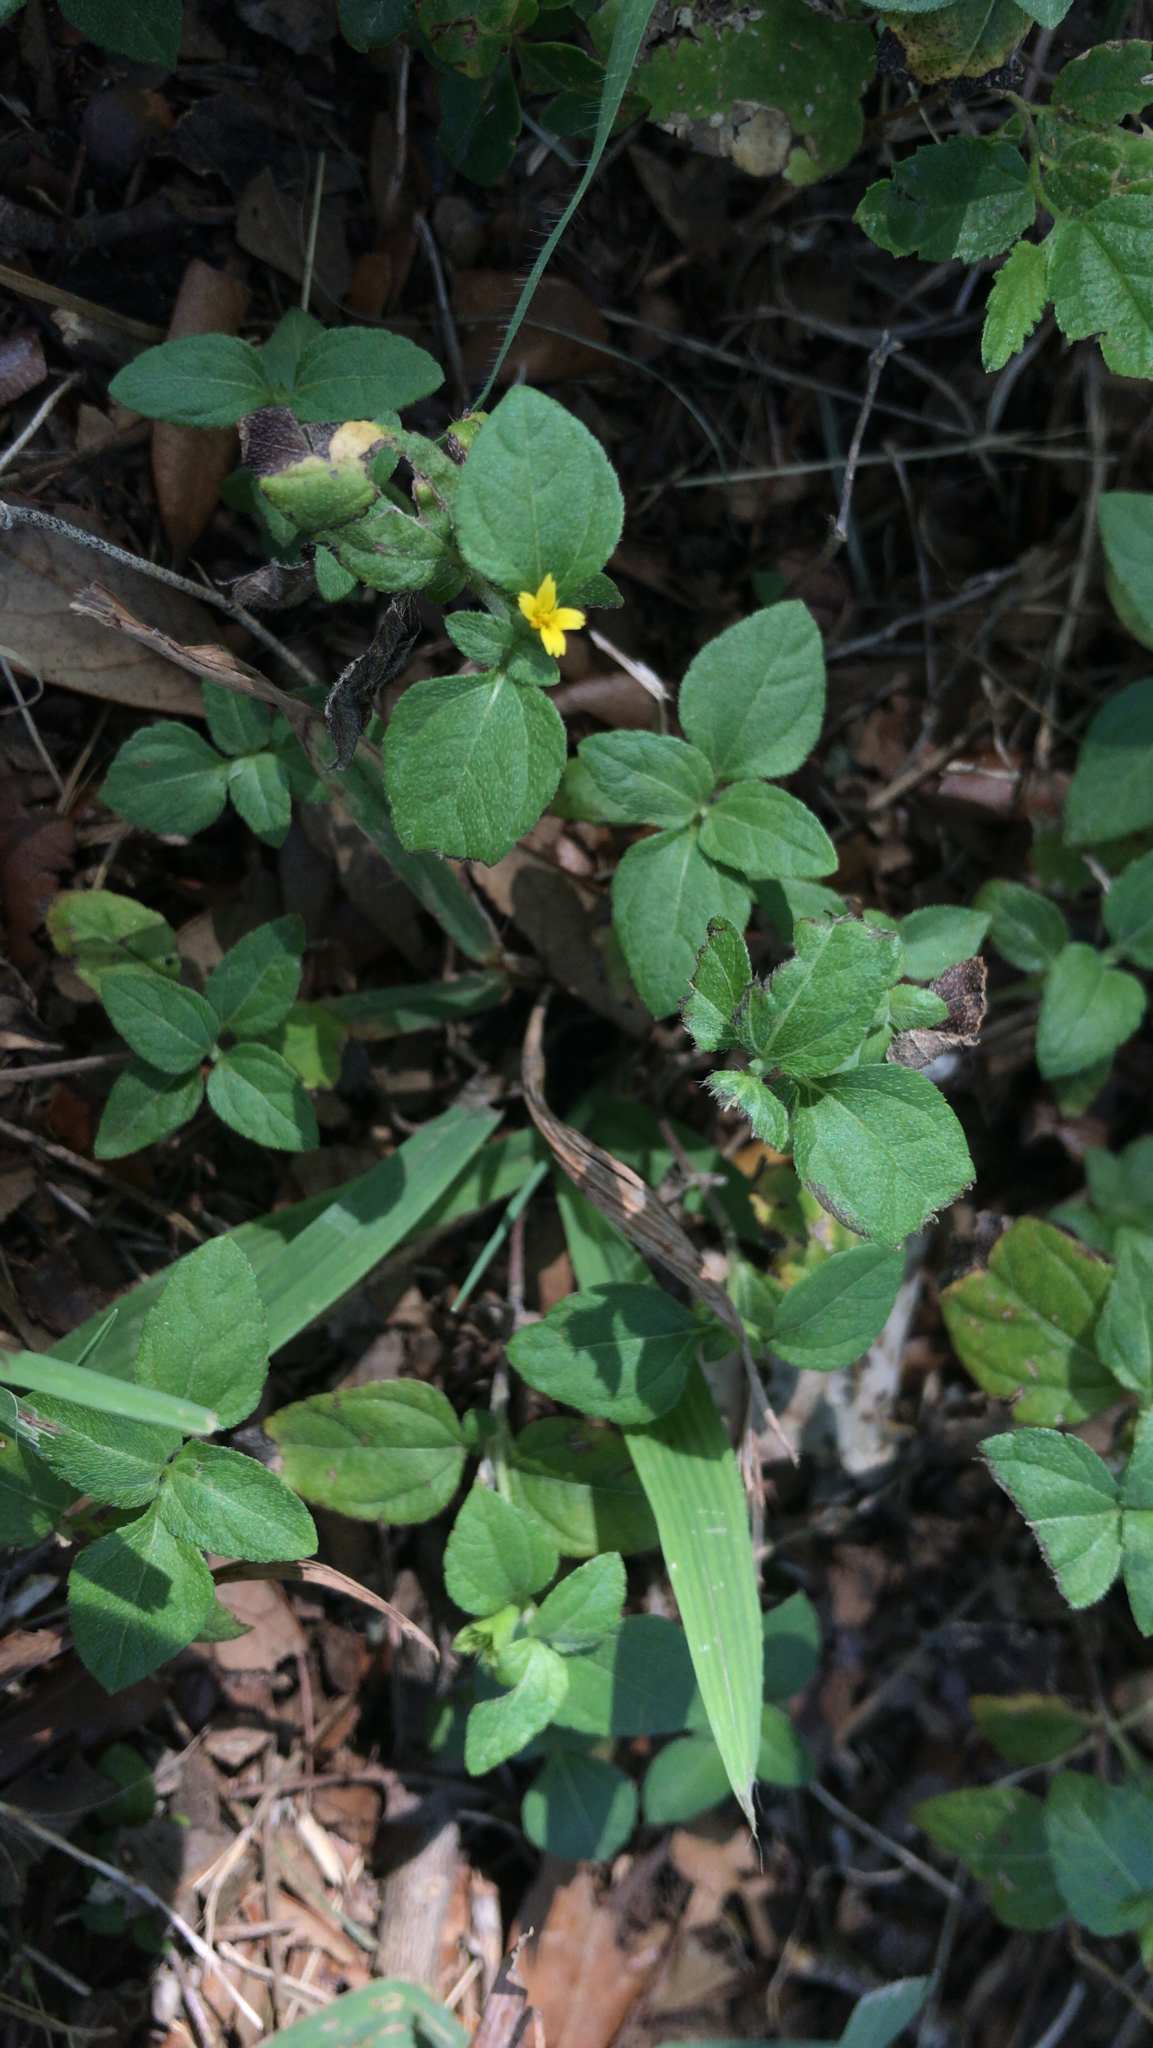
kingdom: Plantae
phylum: Tracheophyta
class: Magnoliopsida
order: Asterales
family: Asteraceae
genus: Calyptocarpus
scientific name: Calyptocarpus vialis
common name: Straggler daisy
